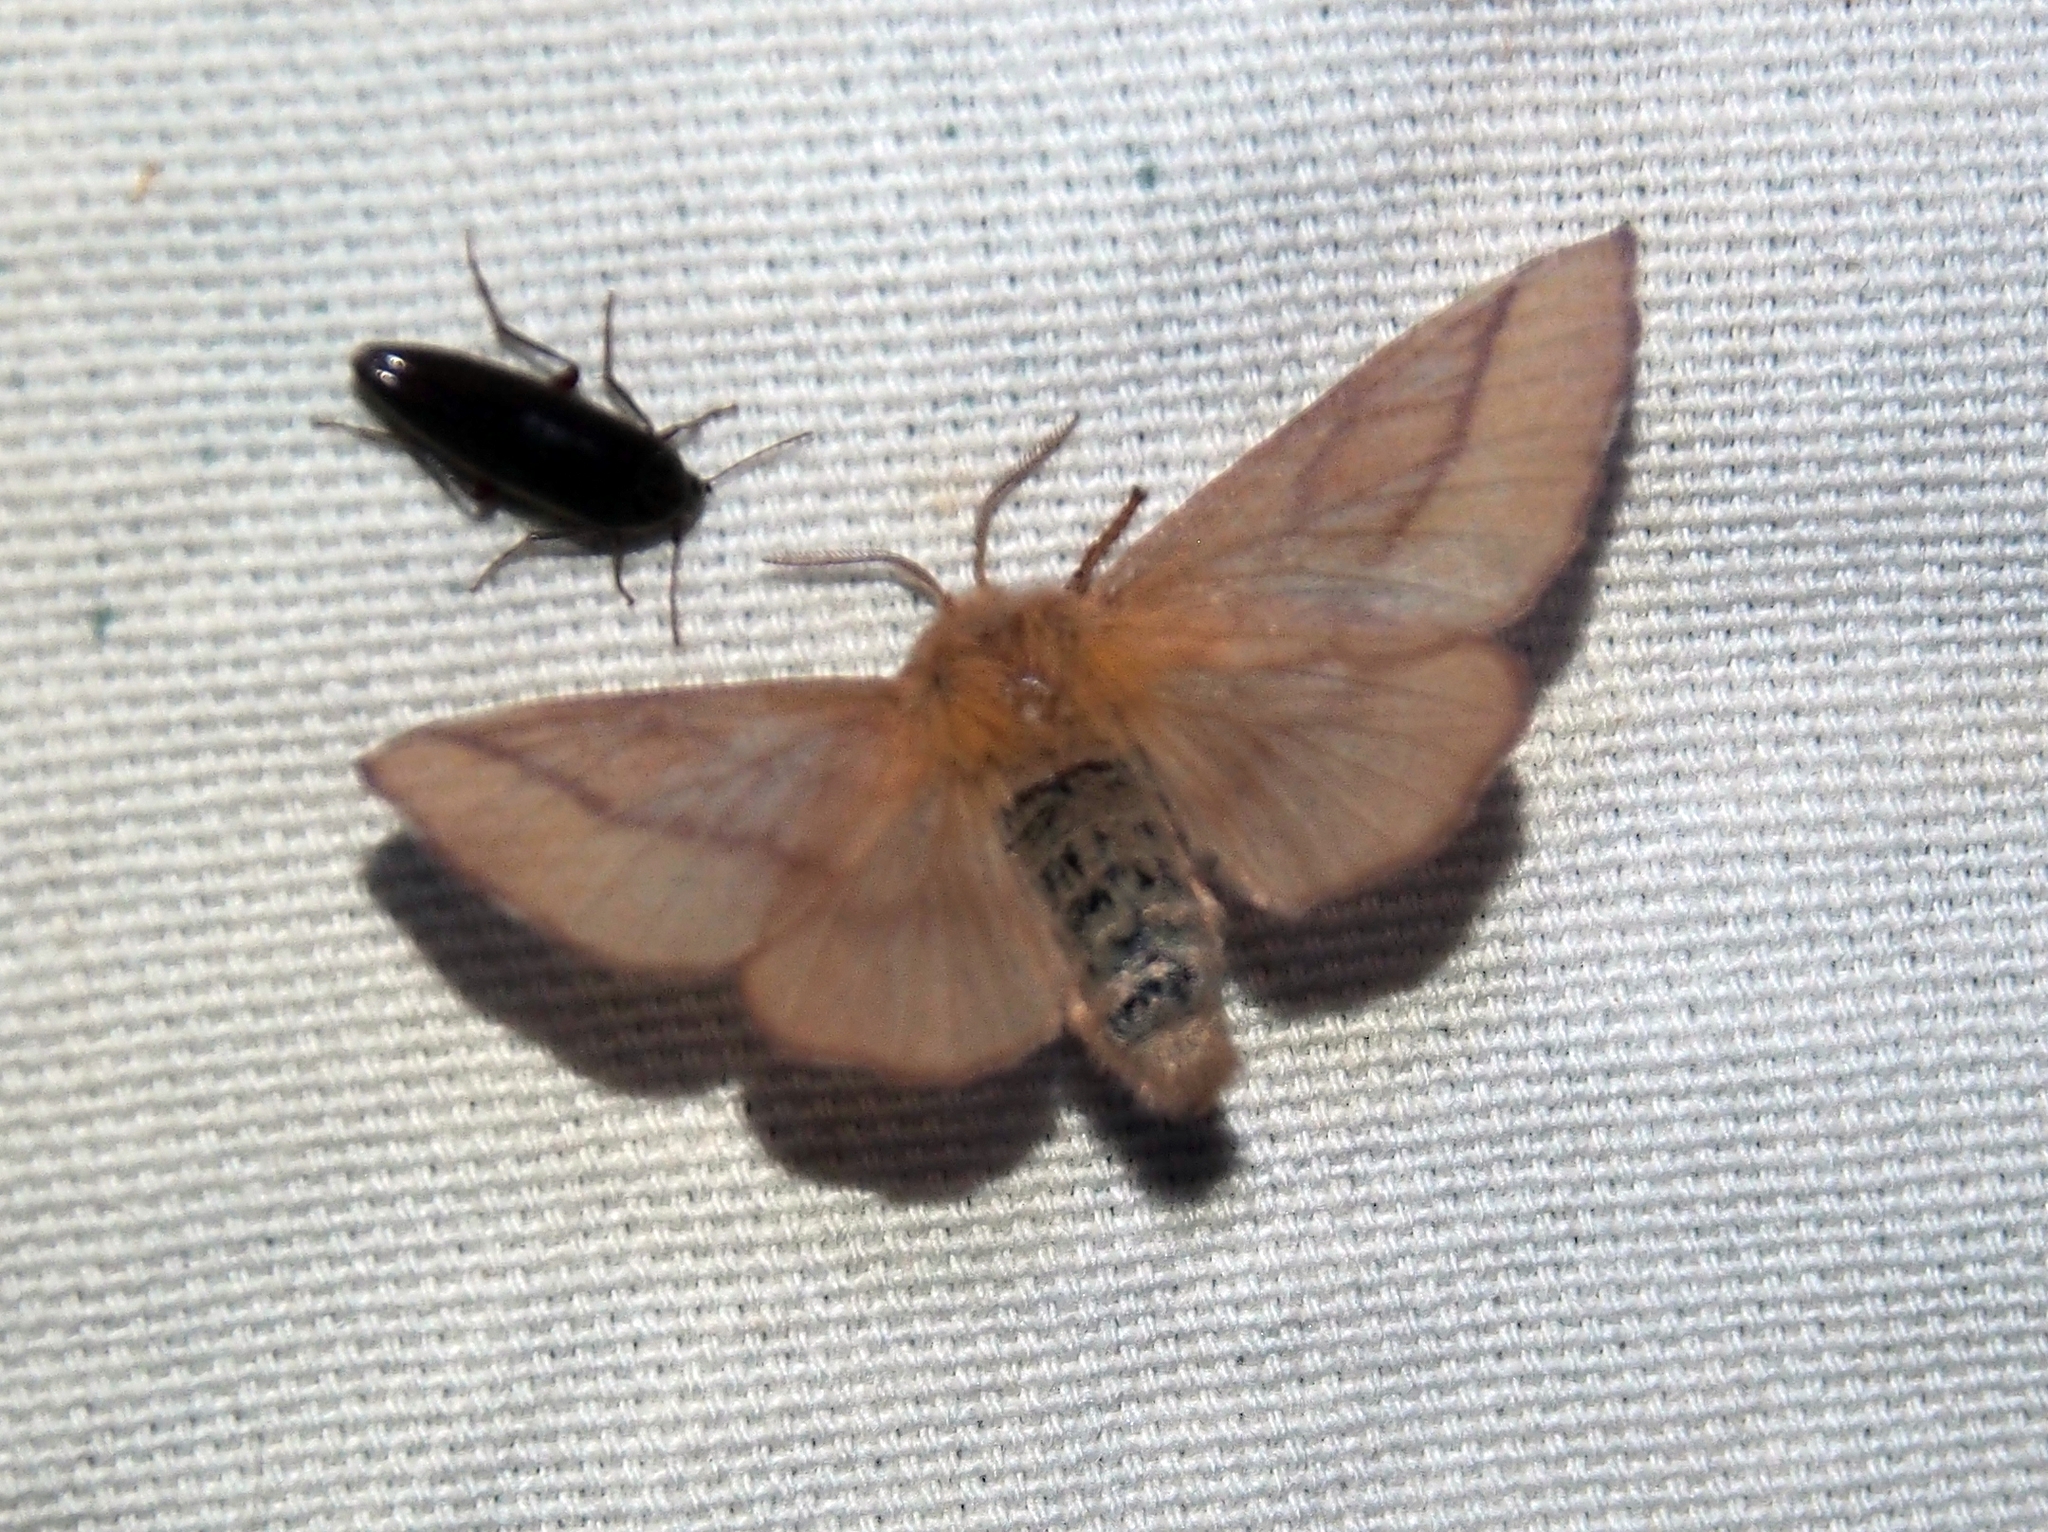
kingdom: Animalia
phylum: Arthropoda
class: Insecta
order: Lepidoptera
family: Lasiocampidae
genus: Malacosoma
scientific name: Malacosoma disstria
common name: Forest tent caterpillar
